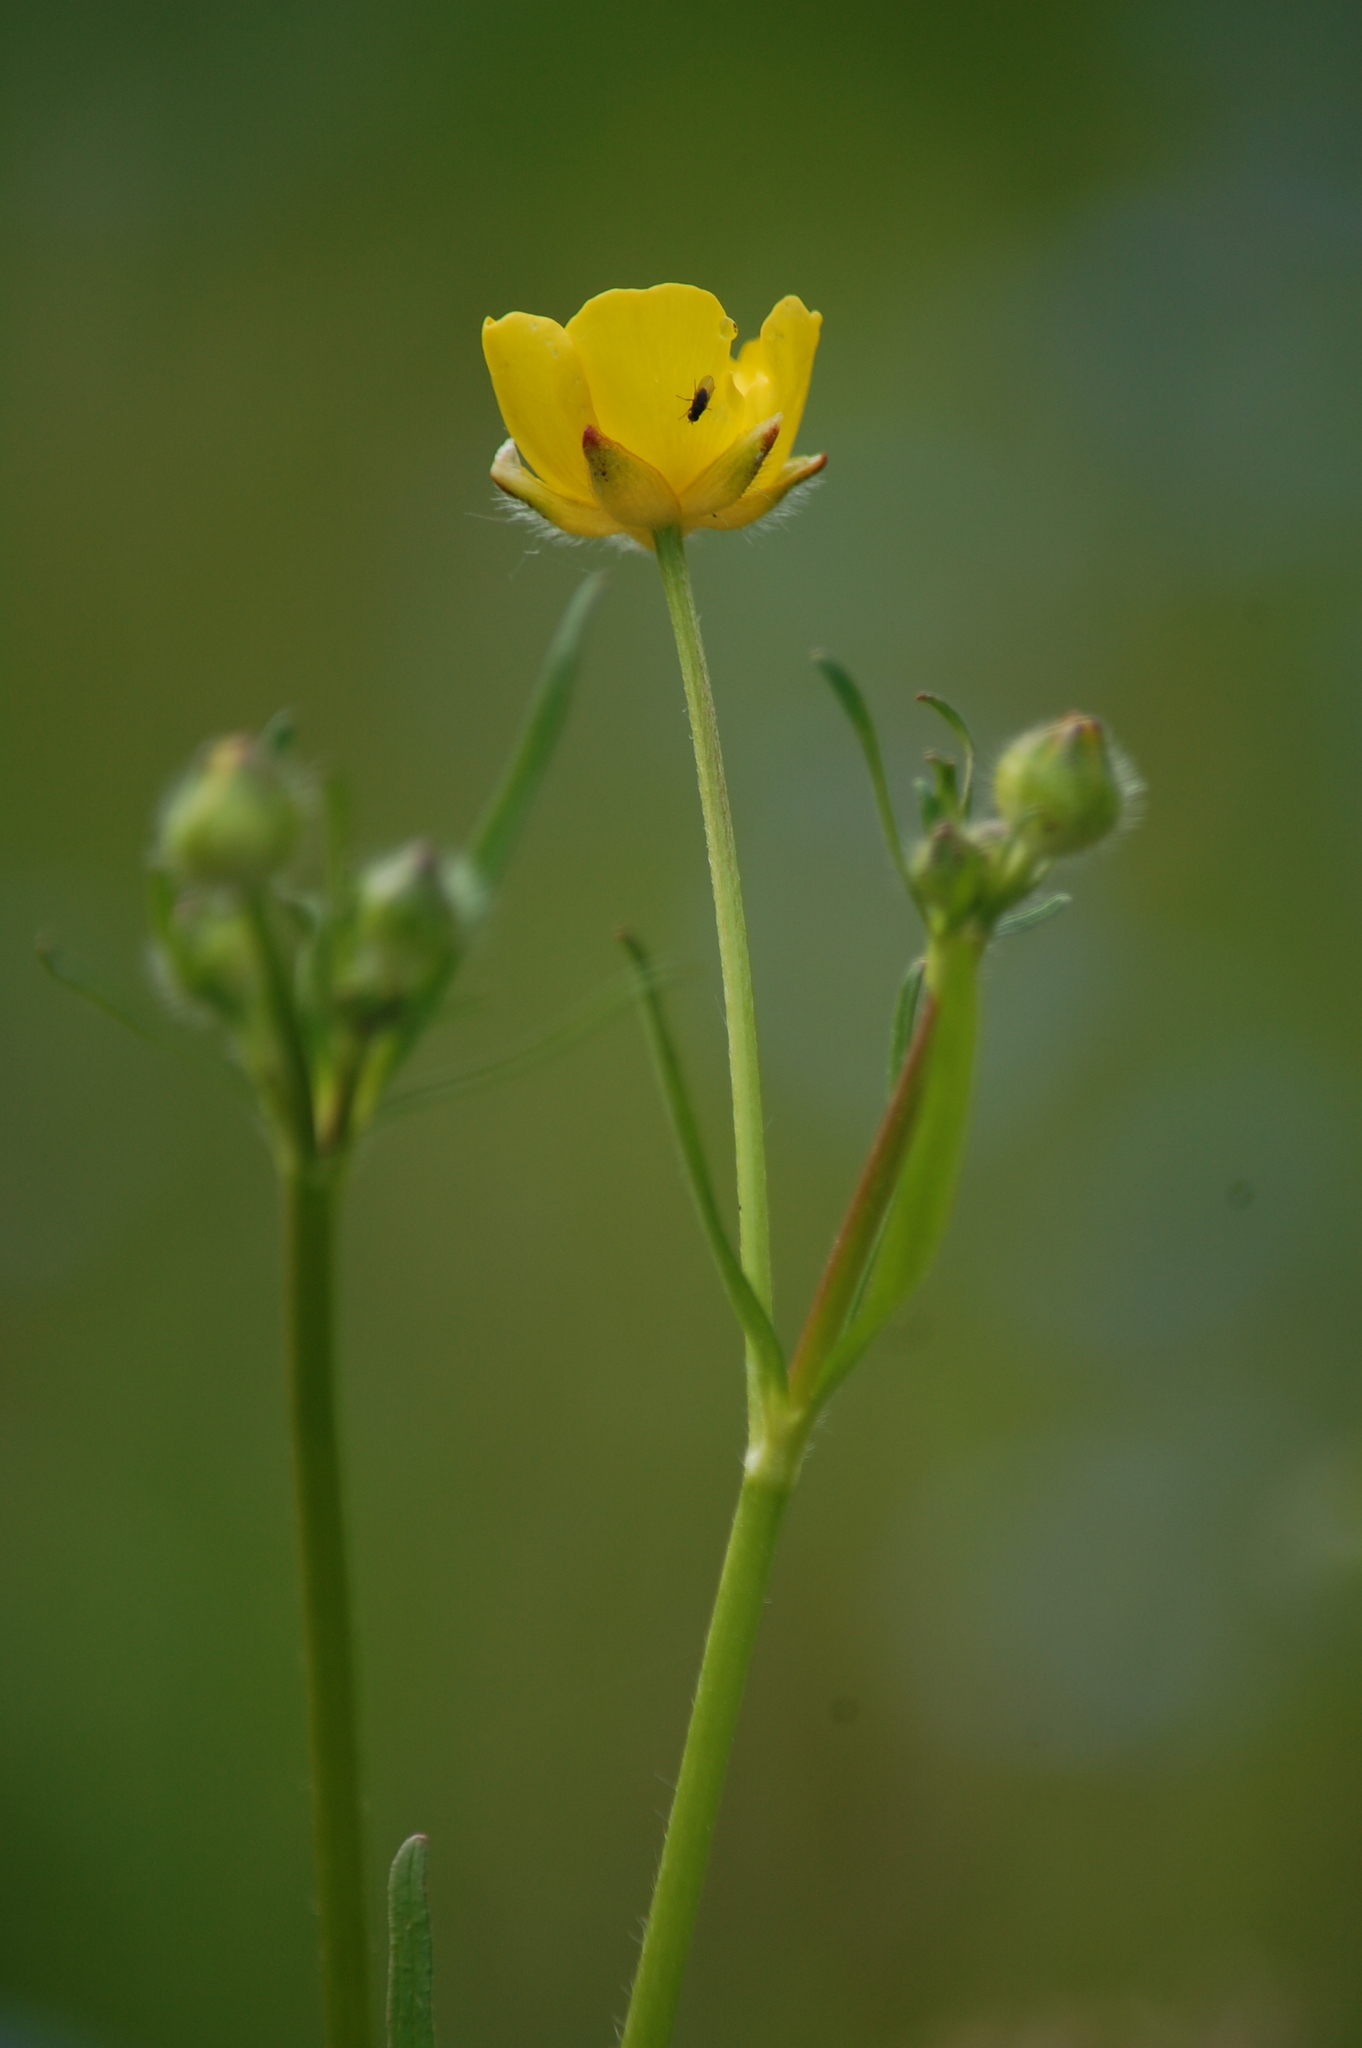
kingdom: Plantae
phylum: Tracheophyta
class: Magnoliopsida
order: Ranunculales
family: Ranunculaceae
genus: Ranunculus
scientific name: Ranunculus polyanthemos
